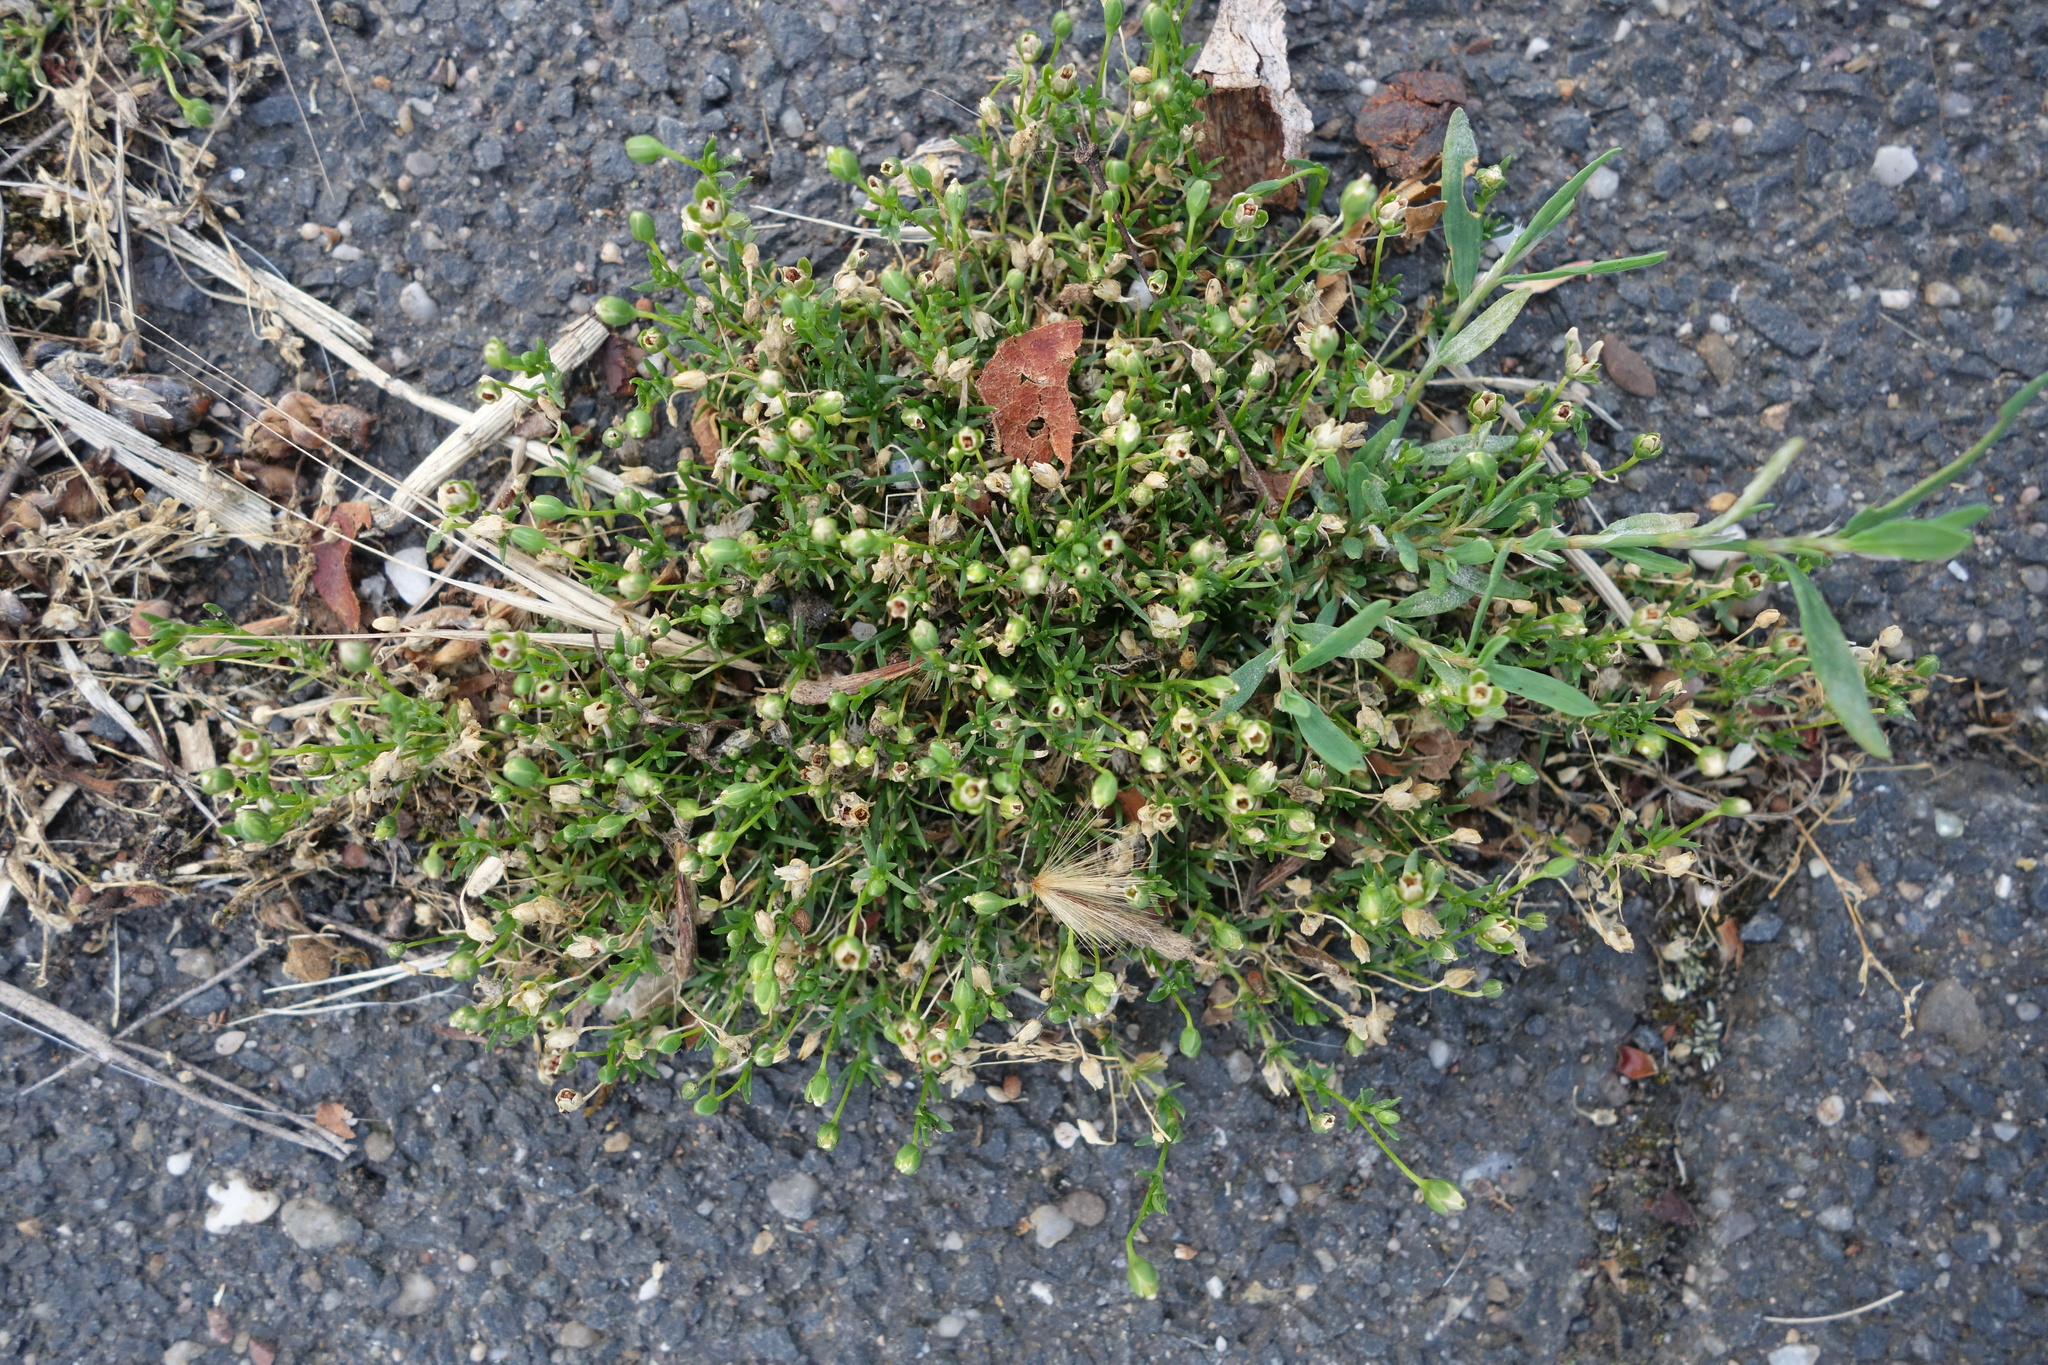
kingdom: Plantae
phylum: Tracheophyta
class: Magnoliopsida
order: Caryophyllales
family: Caryophyllaceae
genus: Sagina
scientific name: Sagina procumbens
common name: Procumbent pearlwort
